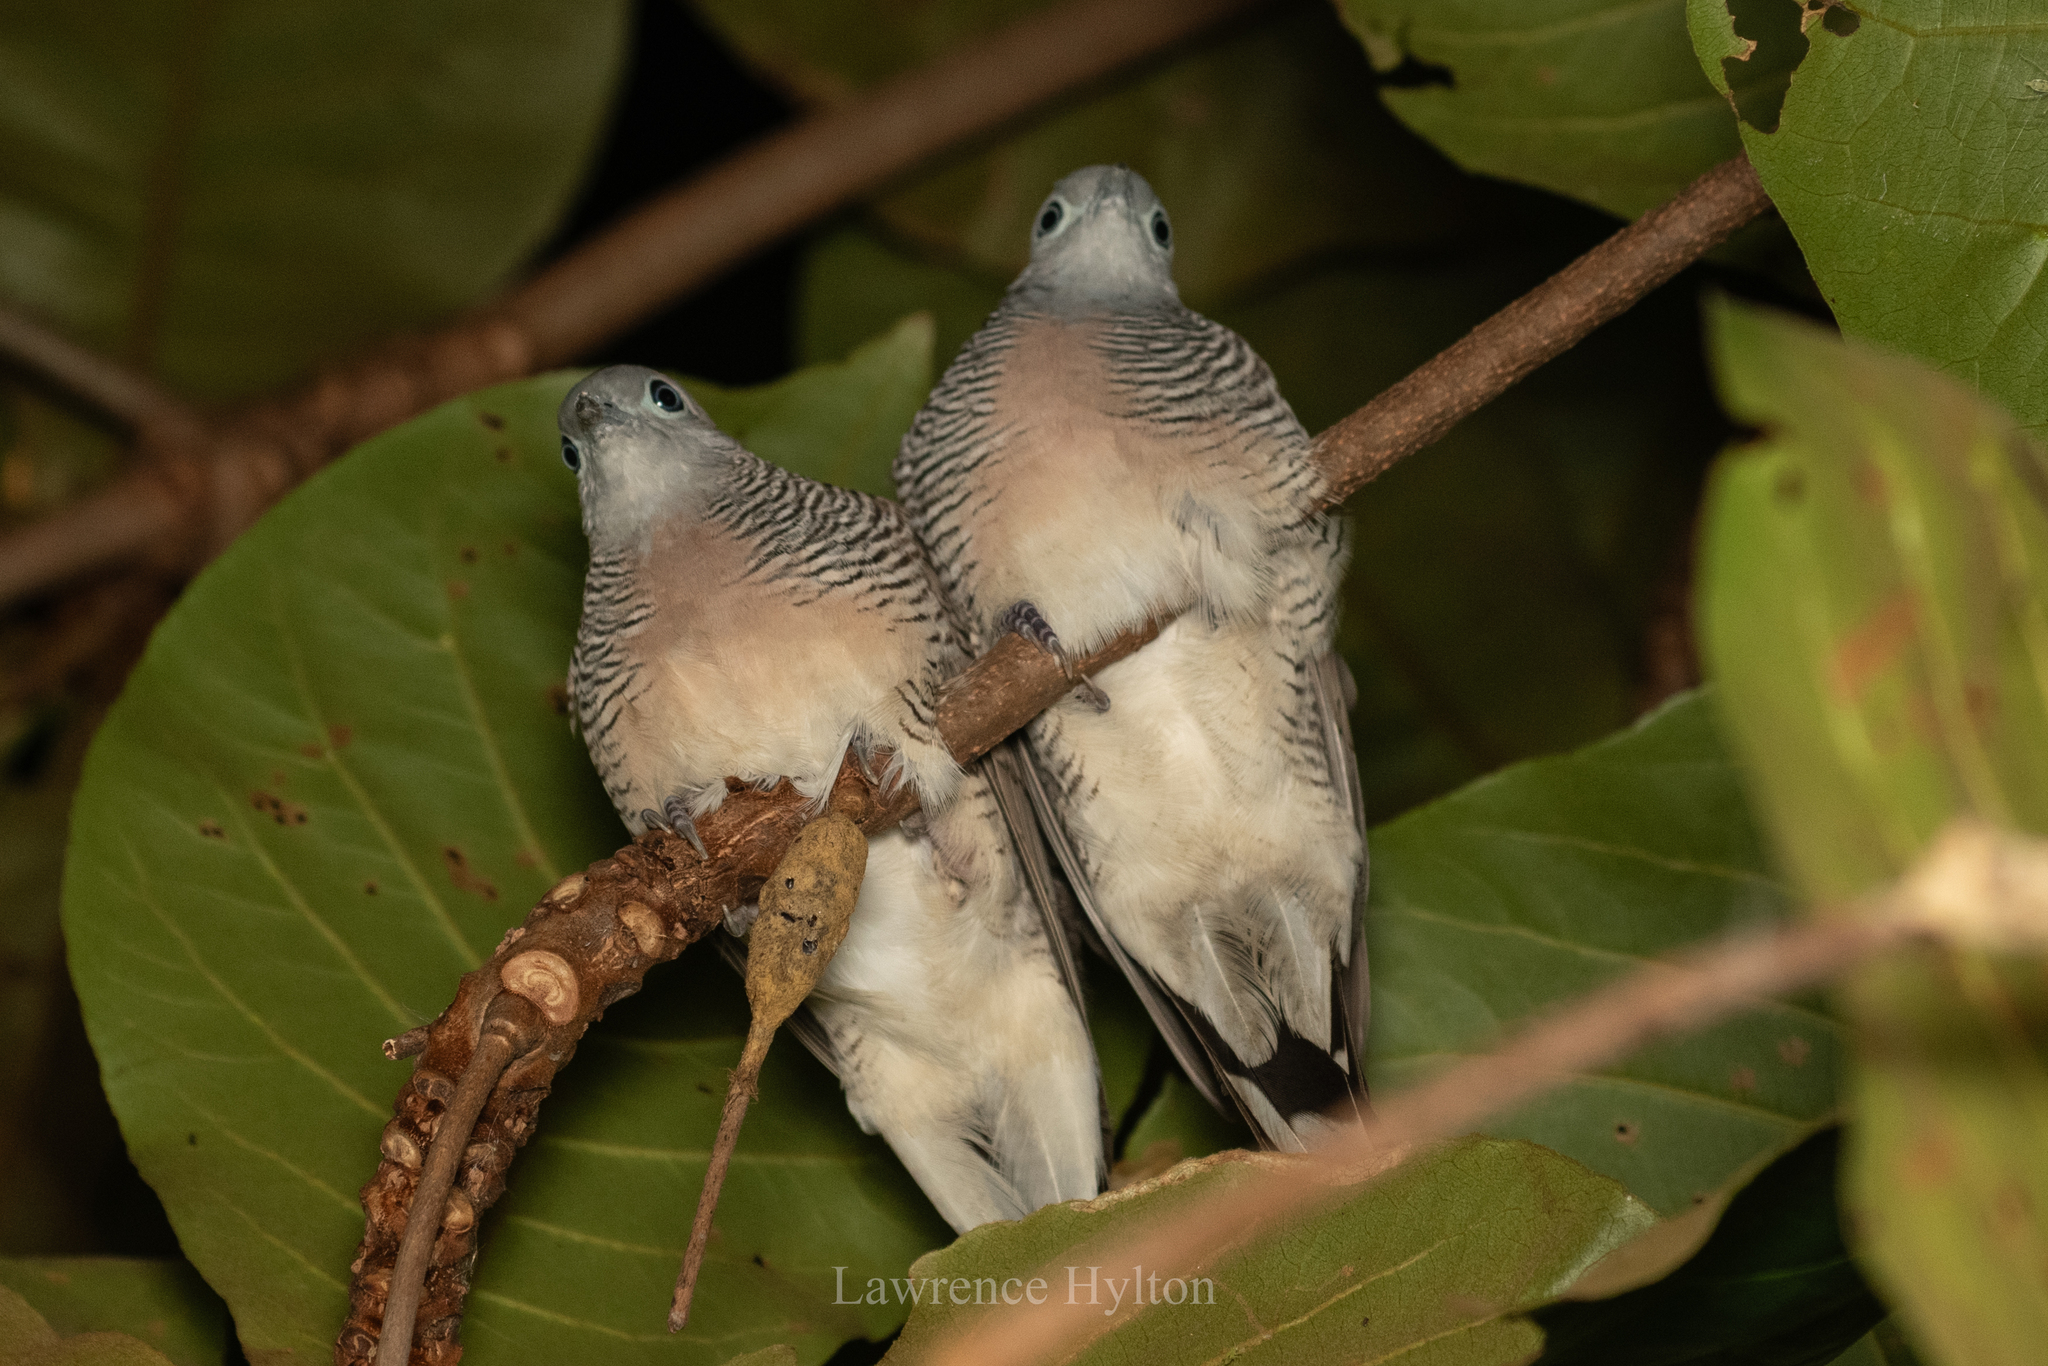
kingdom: Animalia
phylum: Chordata
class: Aves
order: Columbiformes
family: Columbidae
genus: Geopelia
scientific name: Geopelia striata
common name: Zebra dove
